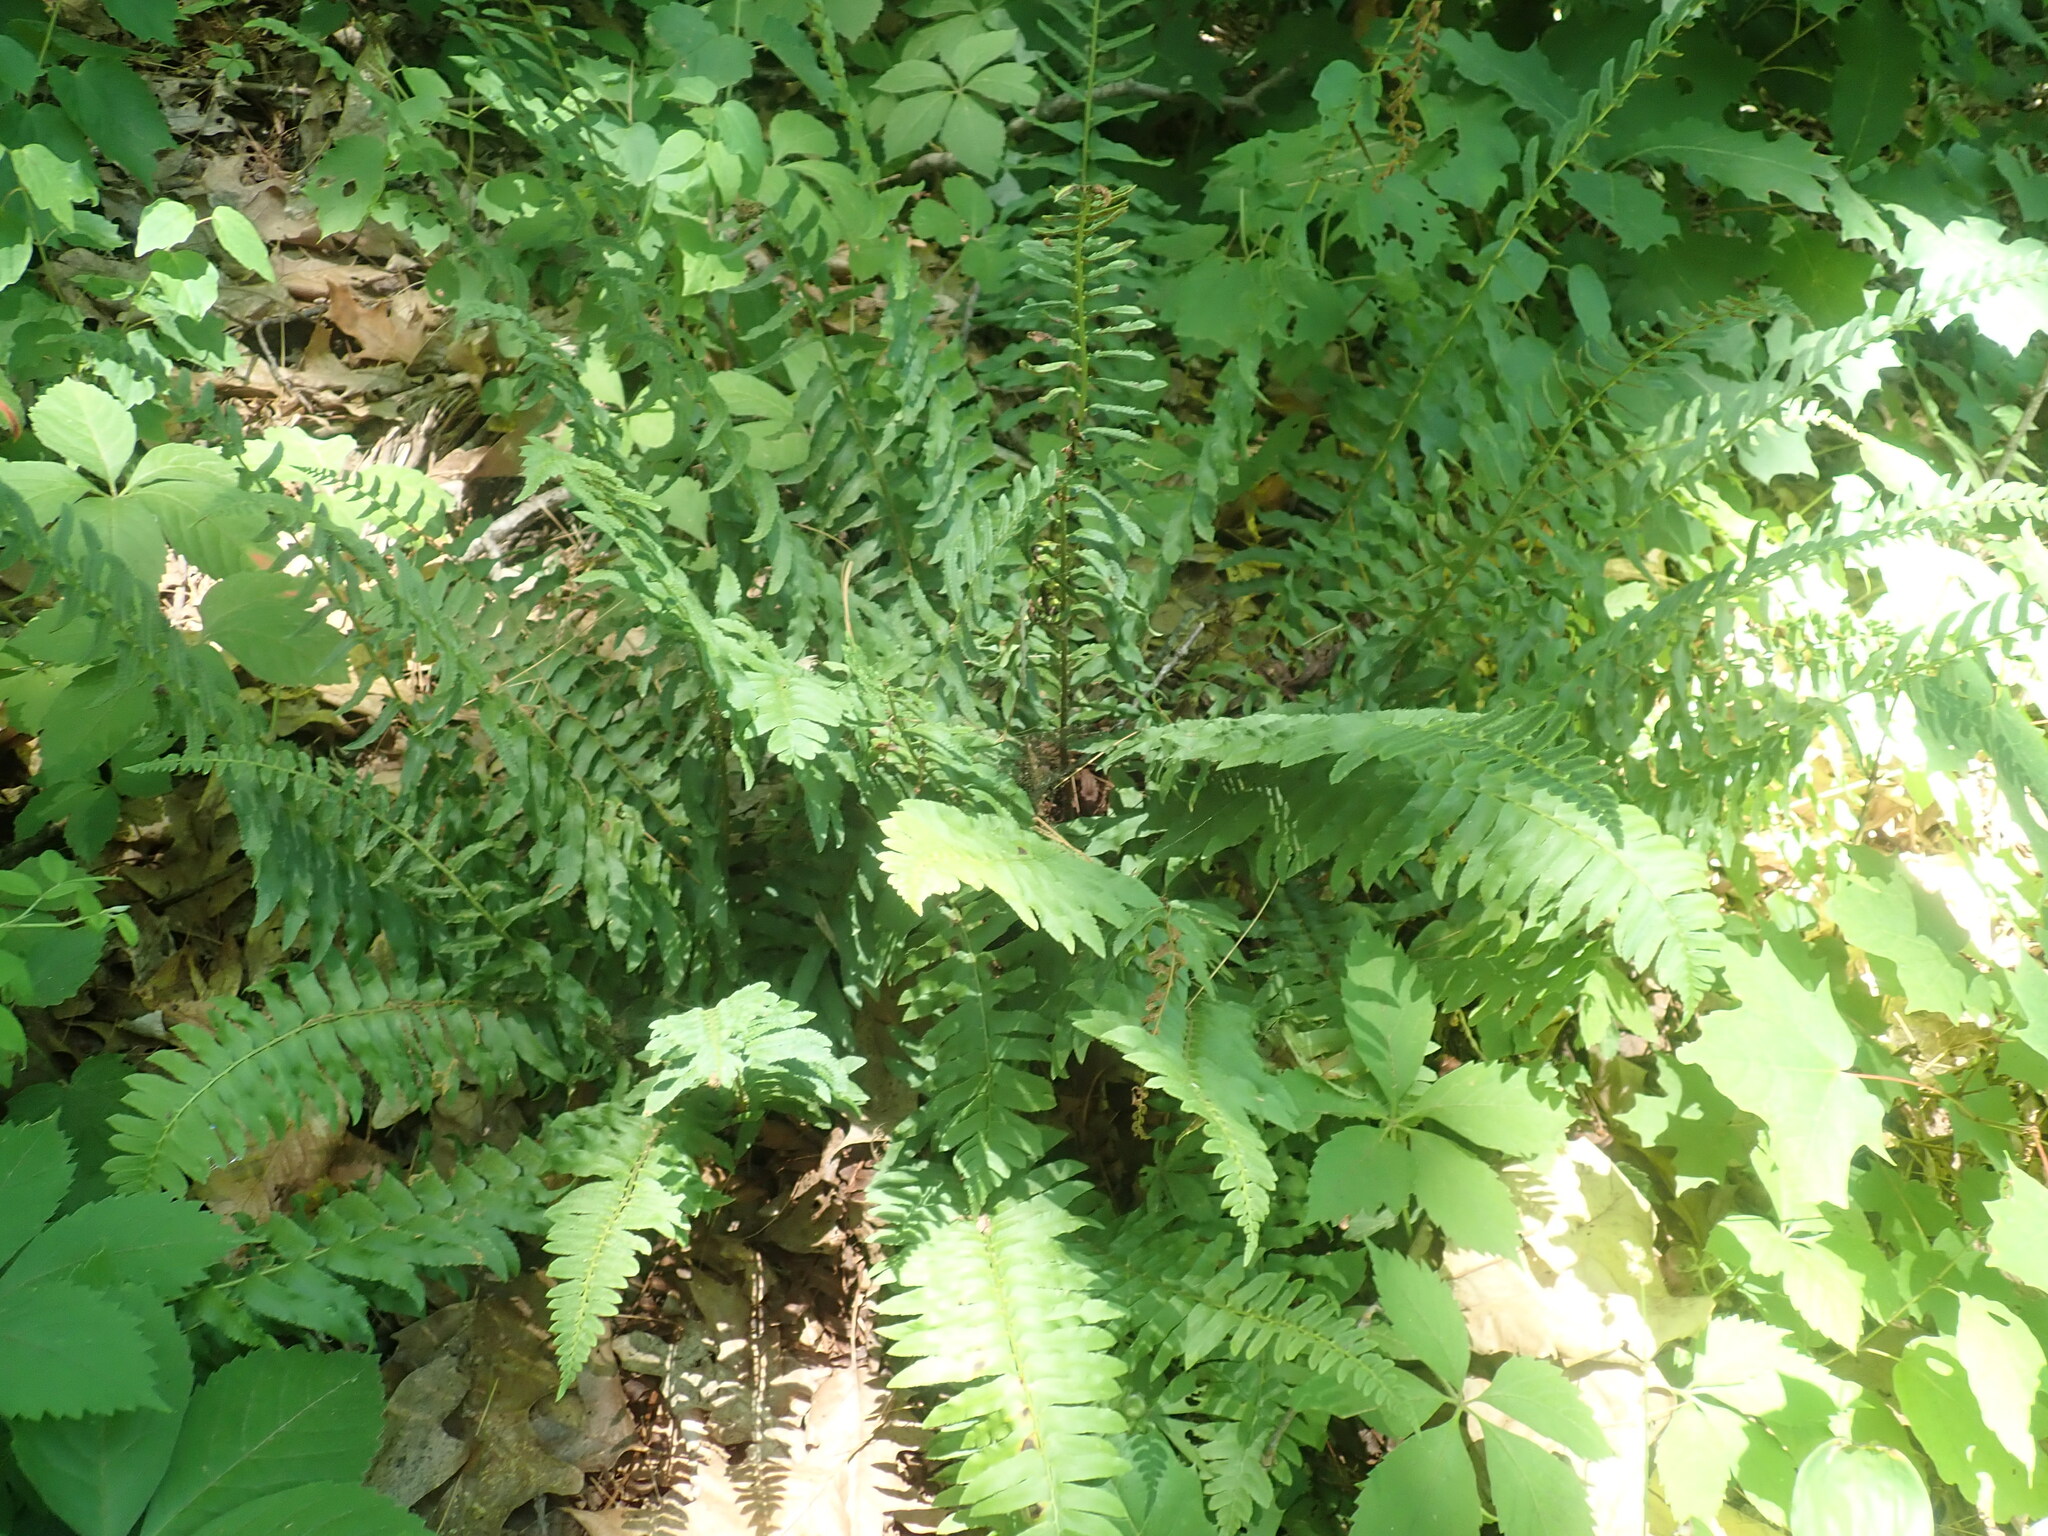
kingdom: Plantae
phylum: Tracheophyta
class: Polypodiopsida
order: Polypodiales
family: Dryopteridaceae
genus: Polystichum
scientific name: Polystichum acrostichoides
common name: Christmas fern
